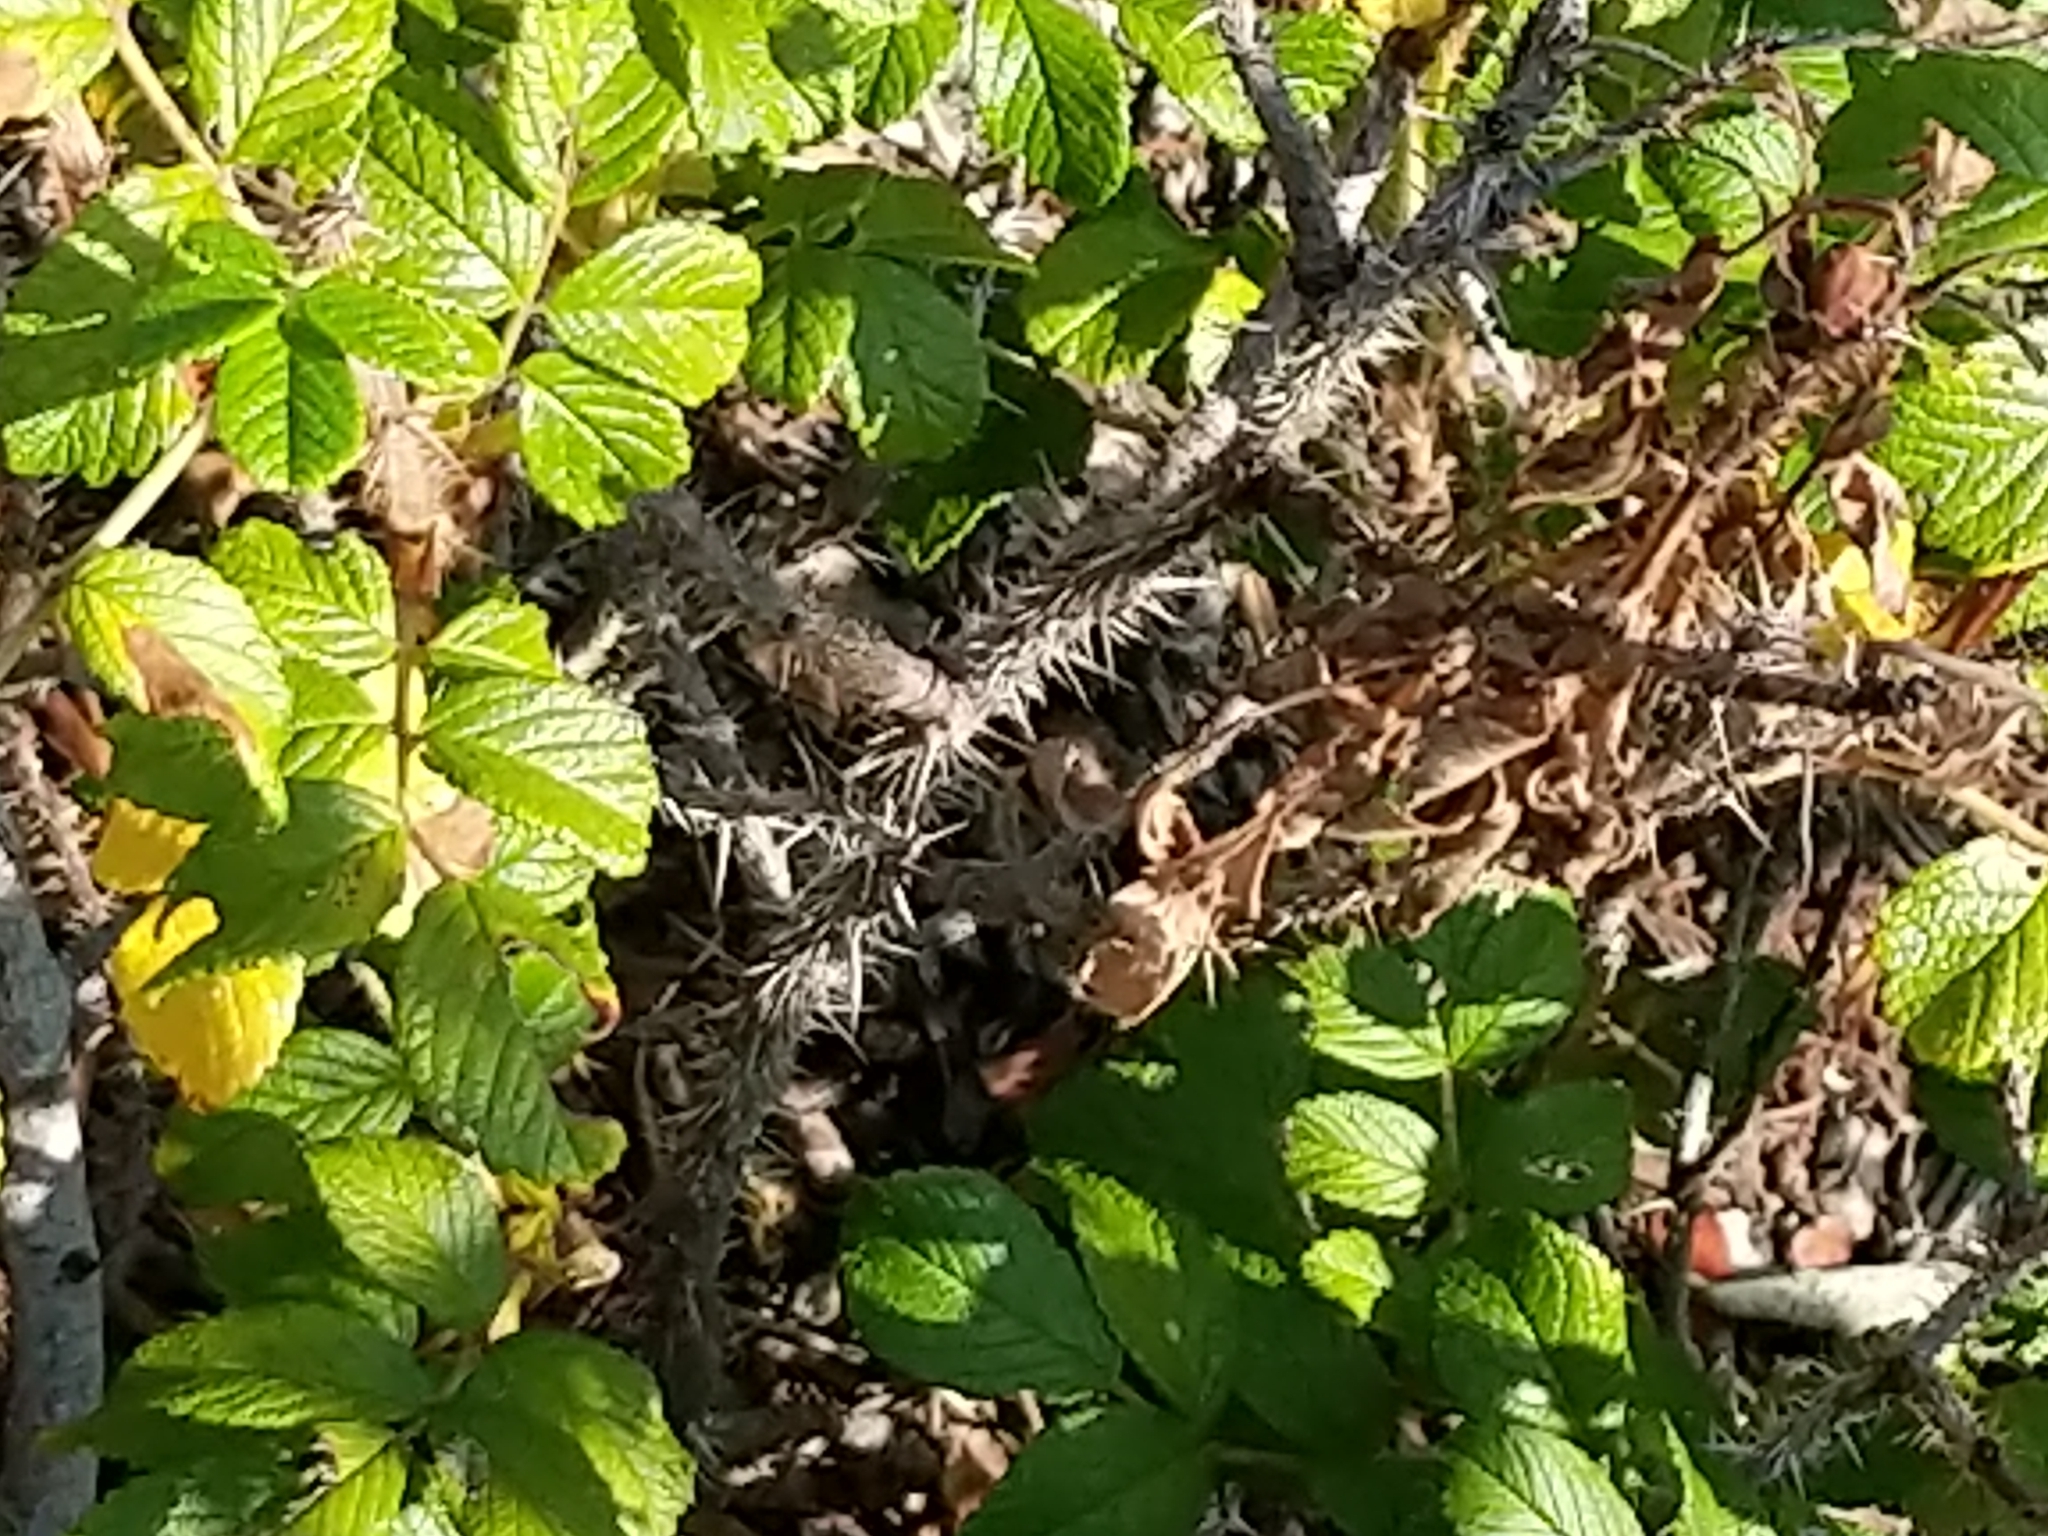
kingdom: Plantae
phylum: Tracheophyta
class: Magnoliopsida
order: Rosales
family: Rosaceae
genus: Rosa
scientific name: Rosa rugosa
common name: Japanese rose
